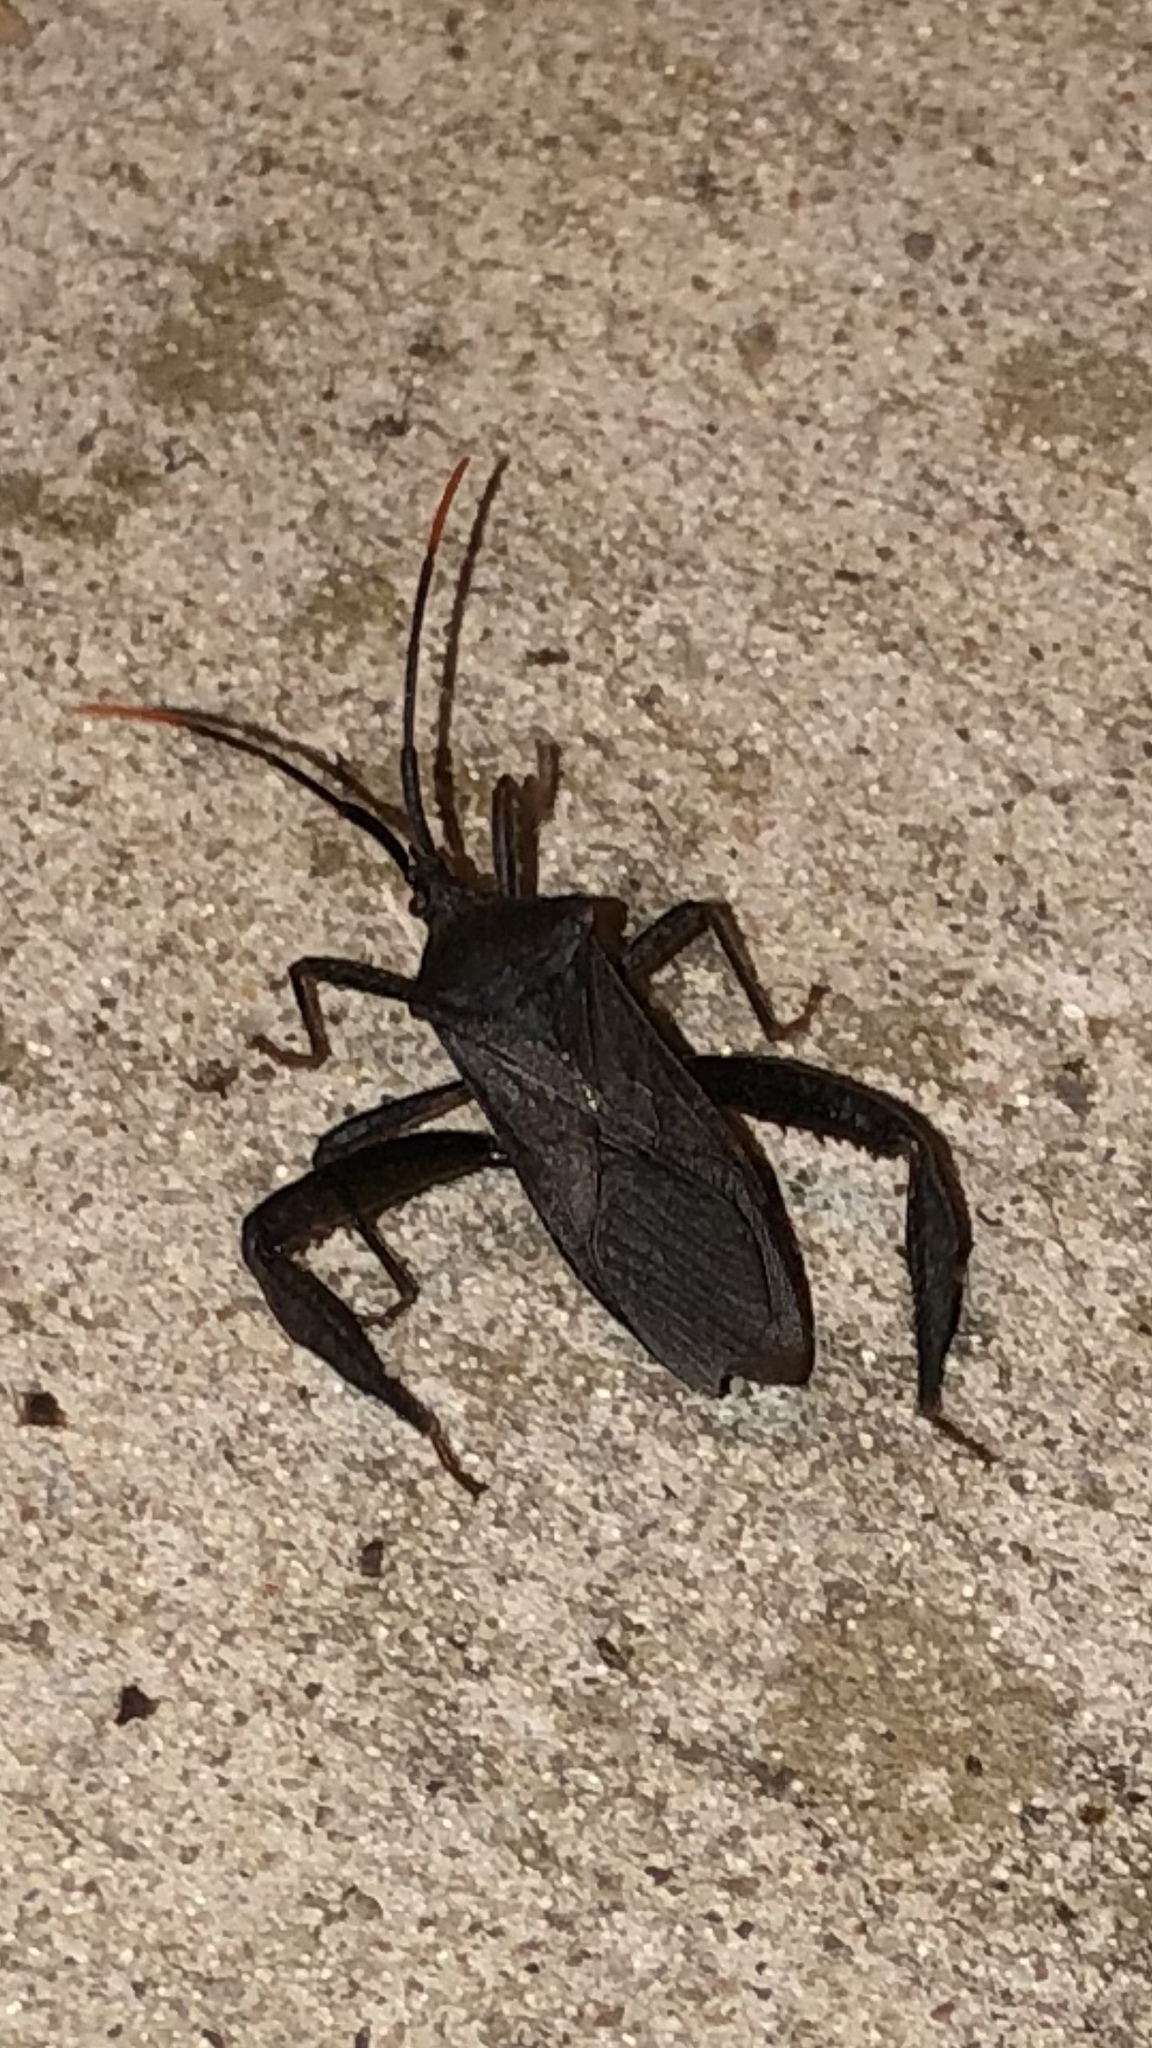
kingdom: Animalia
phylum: Arthropoda
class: Insecta
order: Hemiptera
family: Coreidae
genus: Acanthocephala
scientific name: Acanthocephala terminalis
